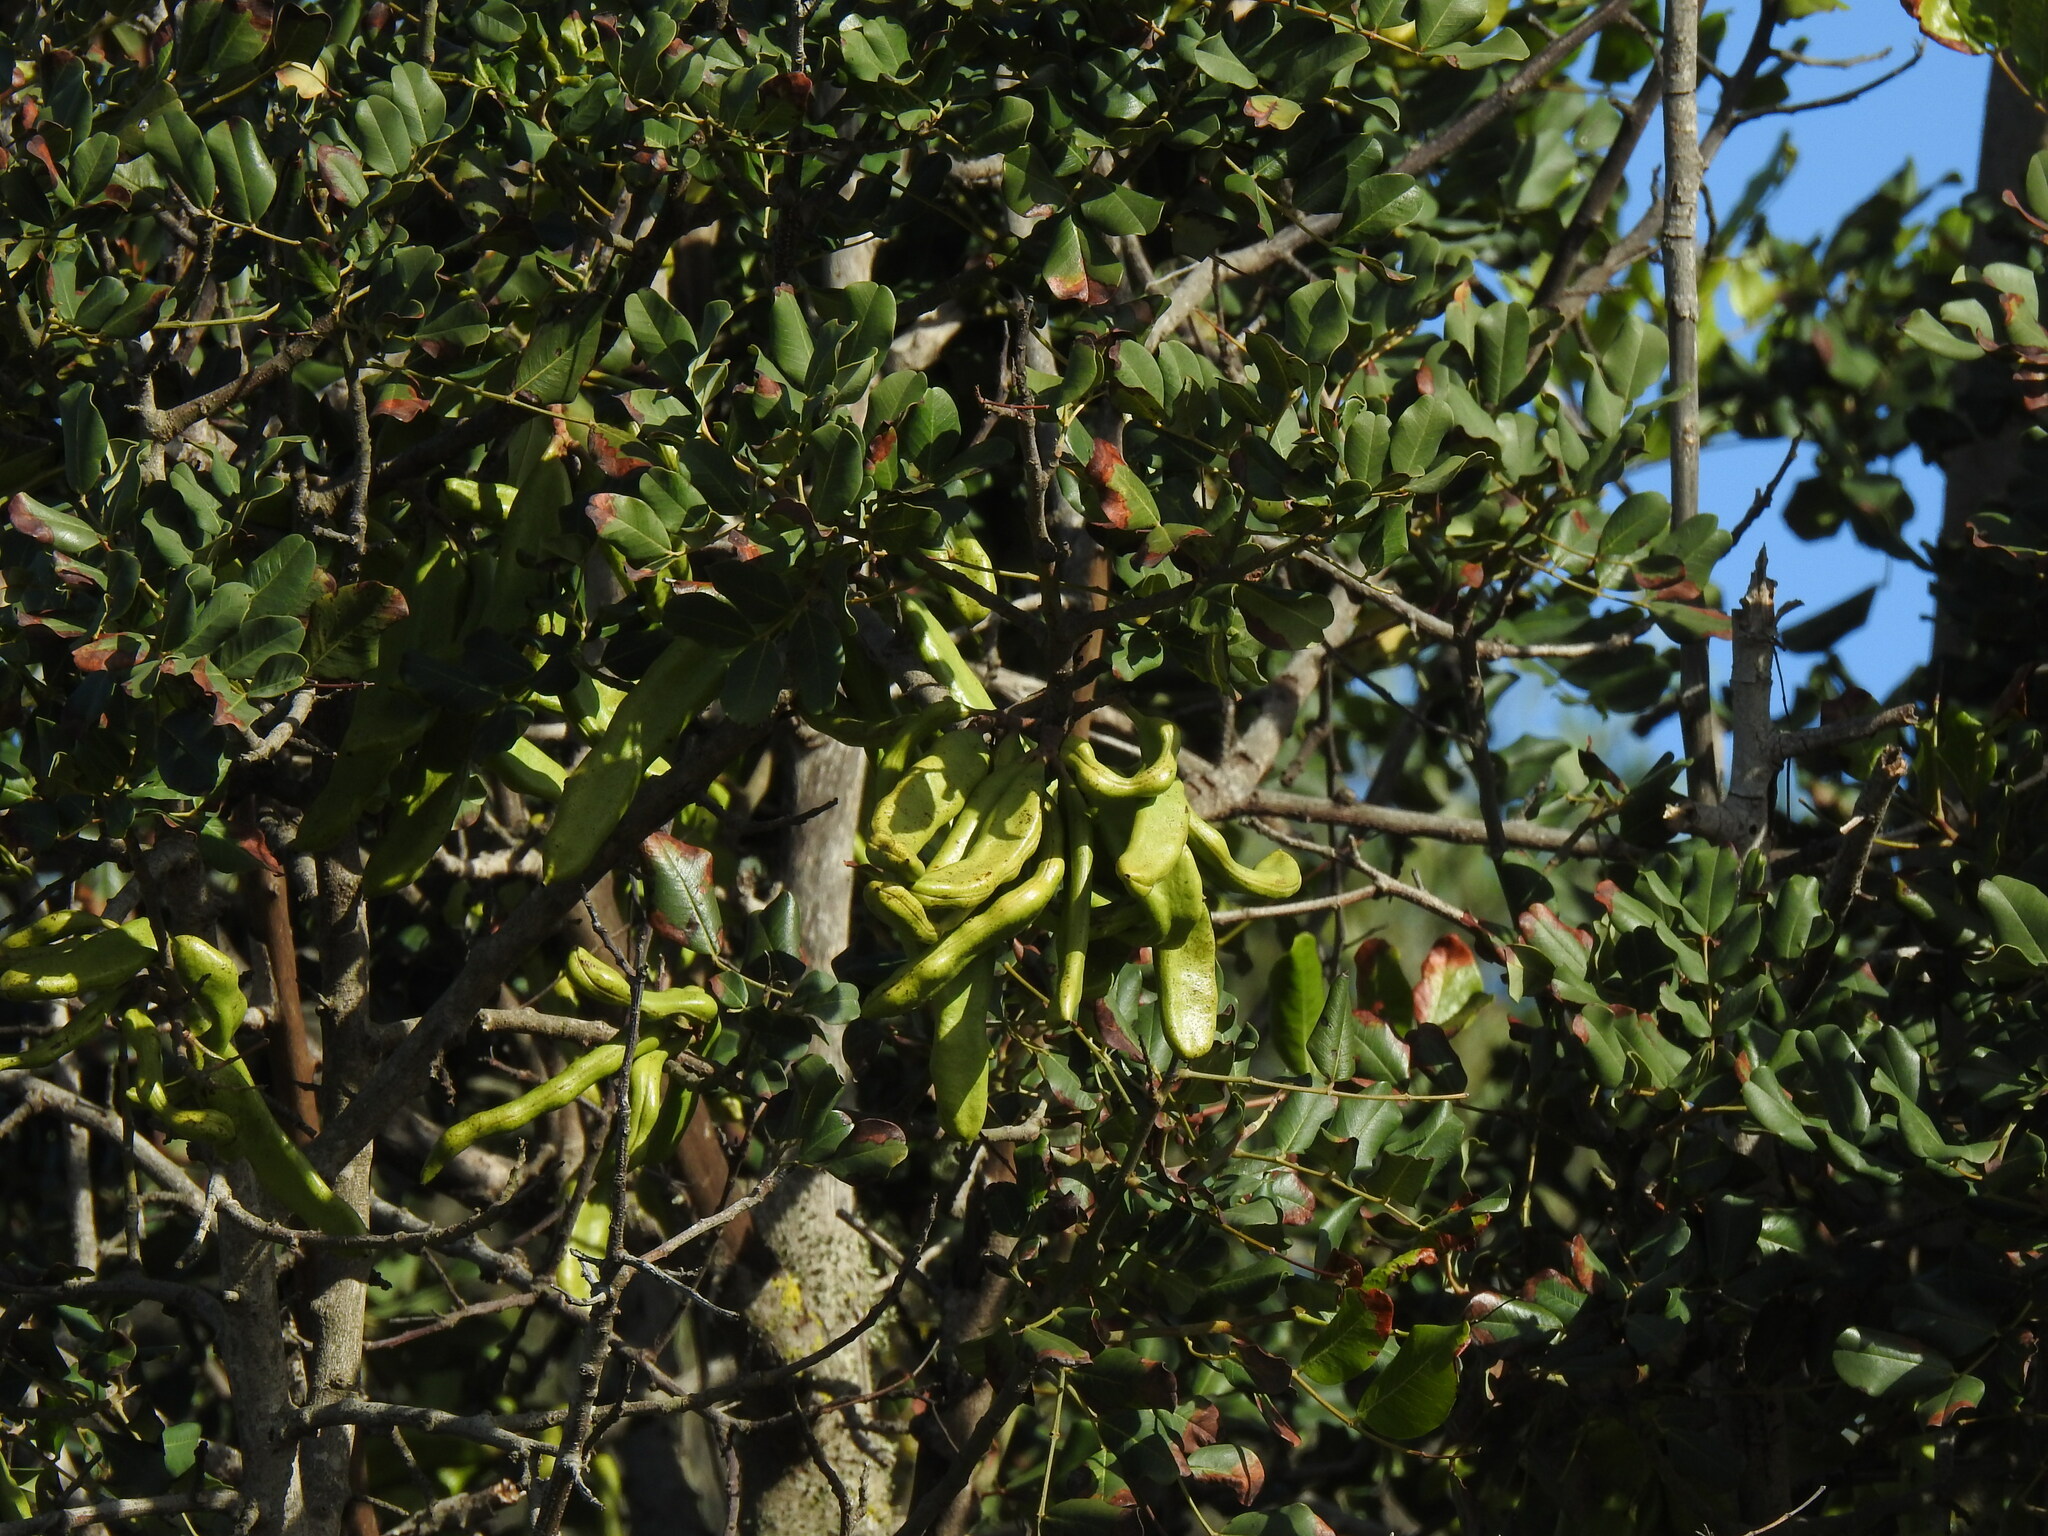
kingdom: Plantae
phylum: Tracheophyta
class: Magnoliopsida
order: Fabales
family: Fabaceae
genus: Ceratonia
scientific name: Ceratonia siliqua
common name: Carob
